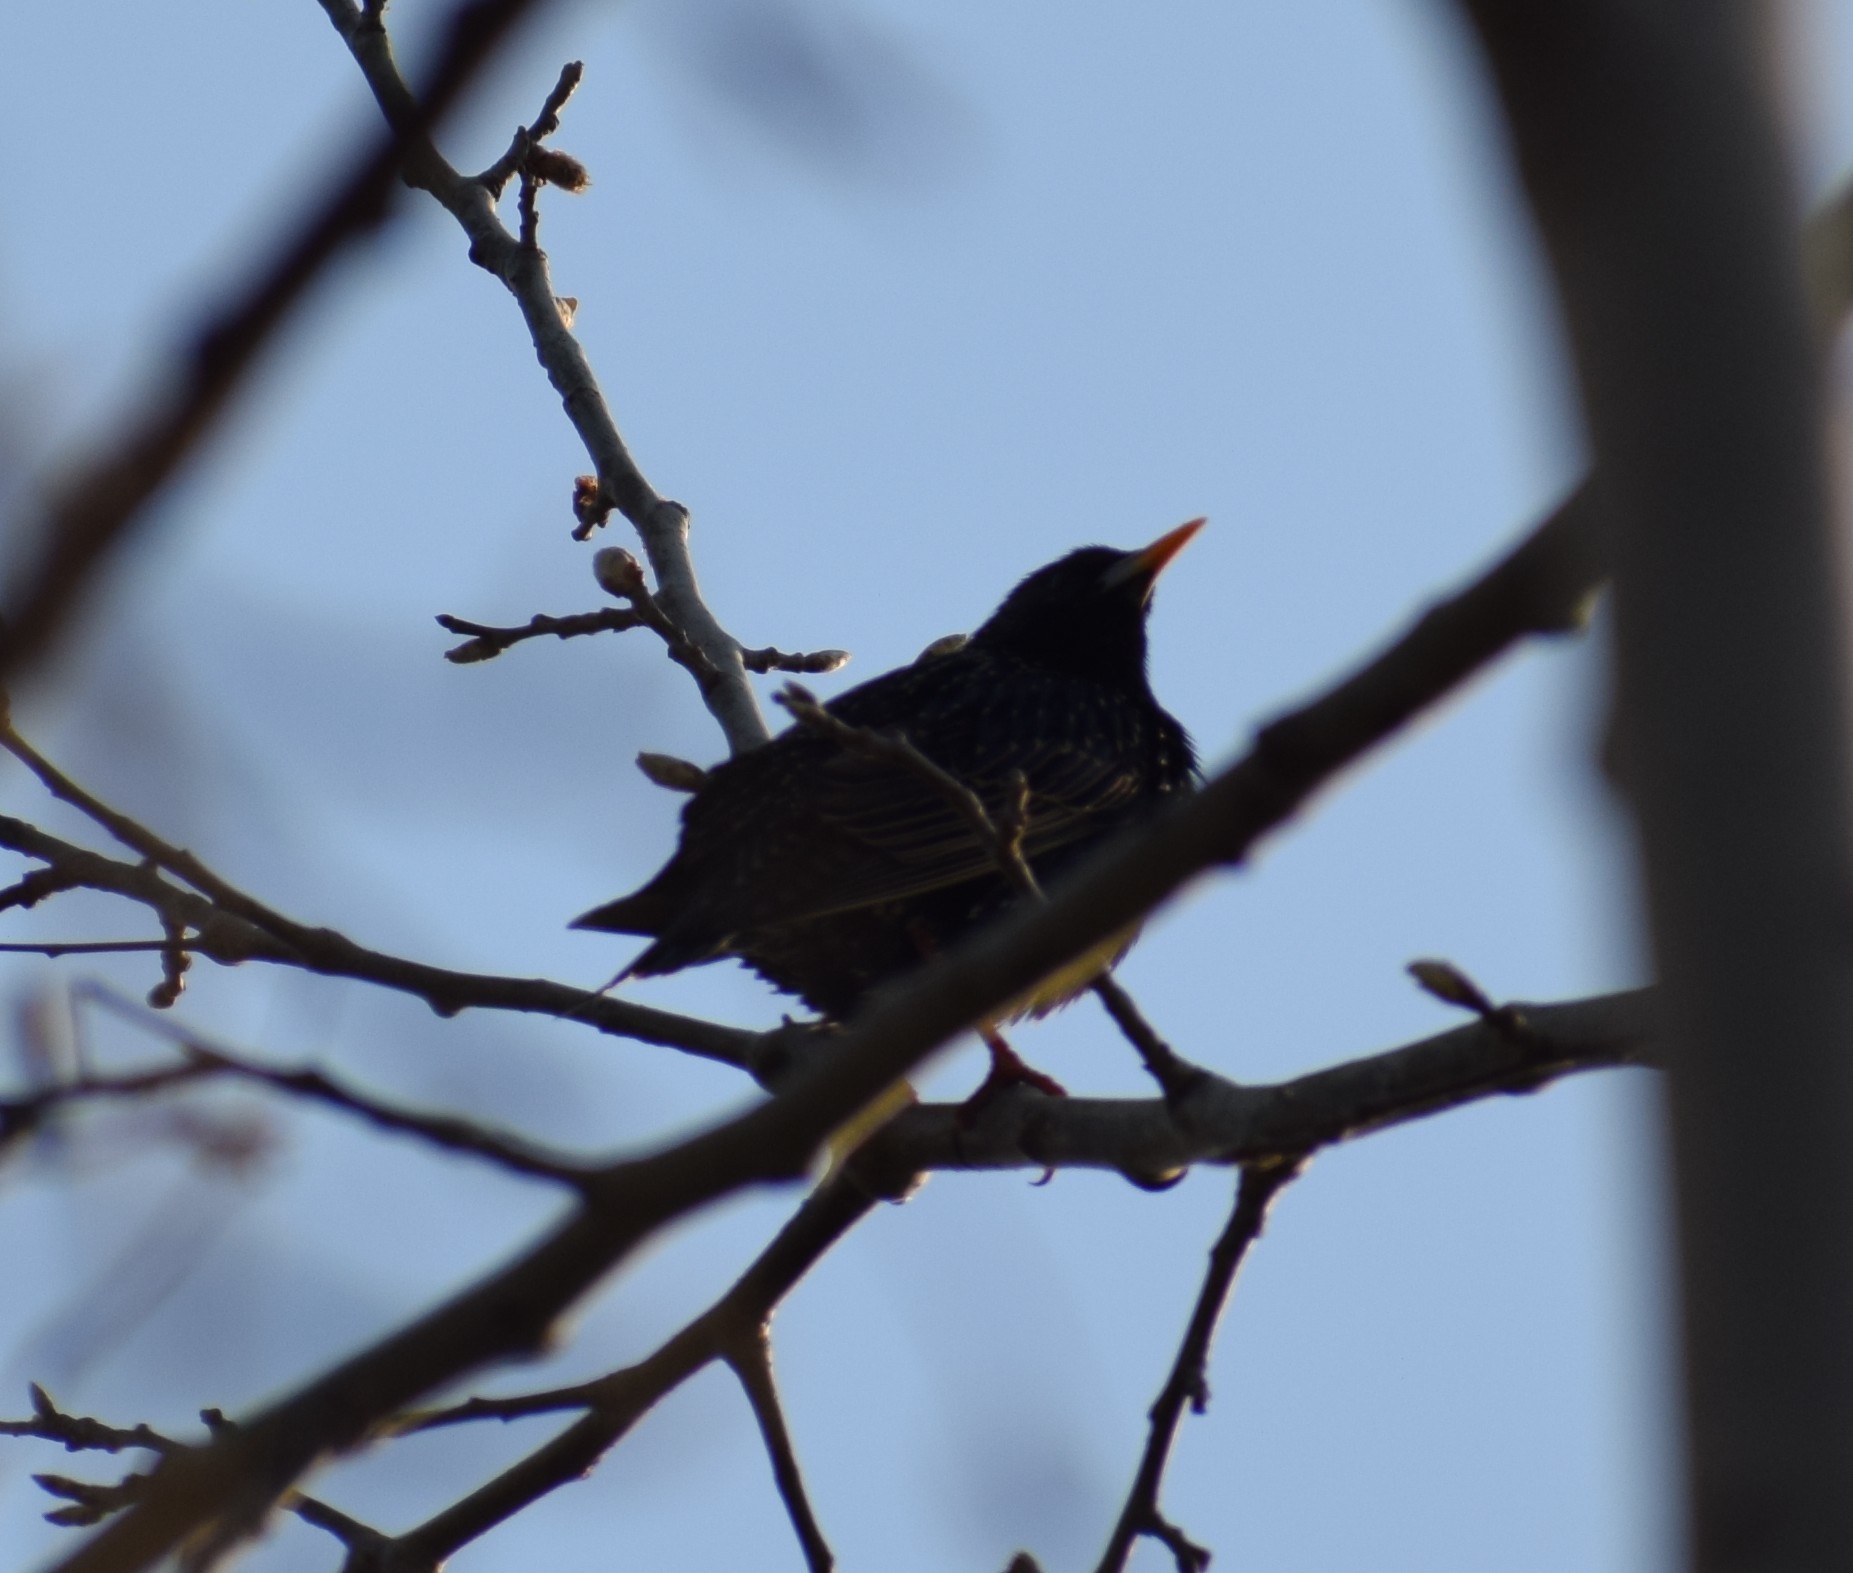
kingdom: Animalia
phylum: Chordata
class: Aves
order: Passeriformes
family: Sturnidae
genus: Sturnus
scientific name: Sturnus vulgaris
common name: Common starling
